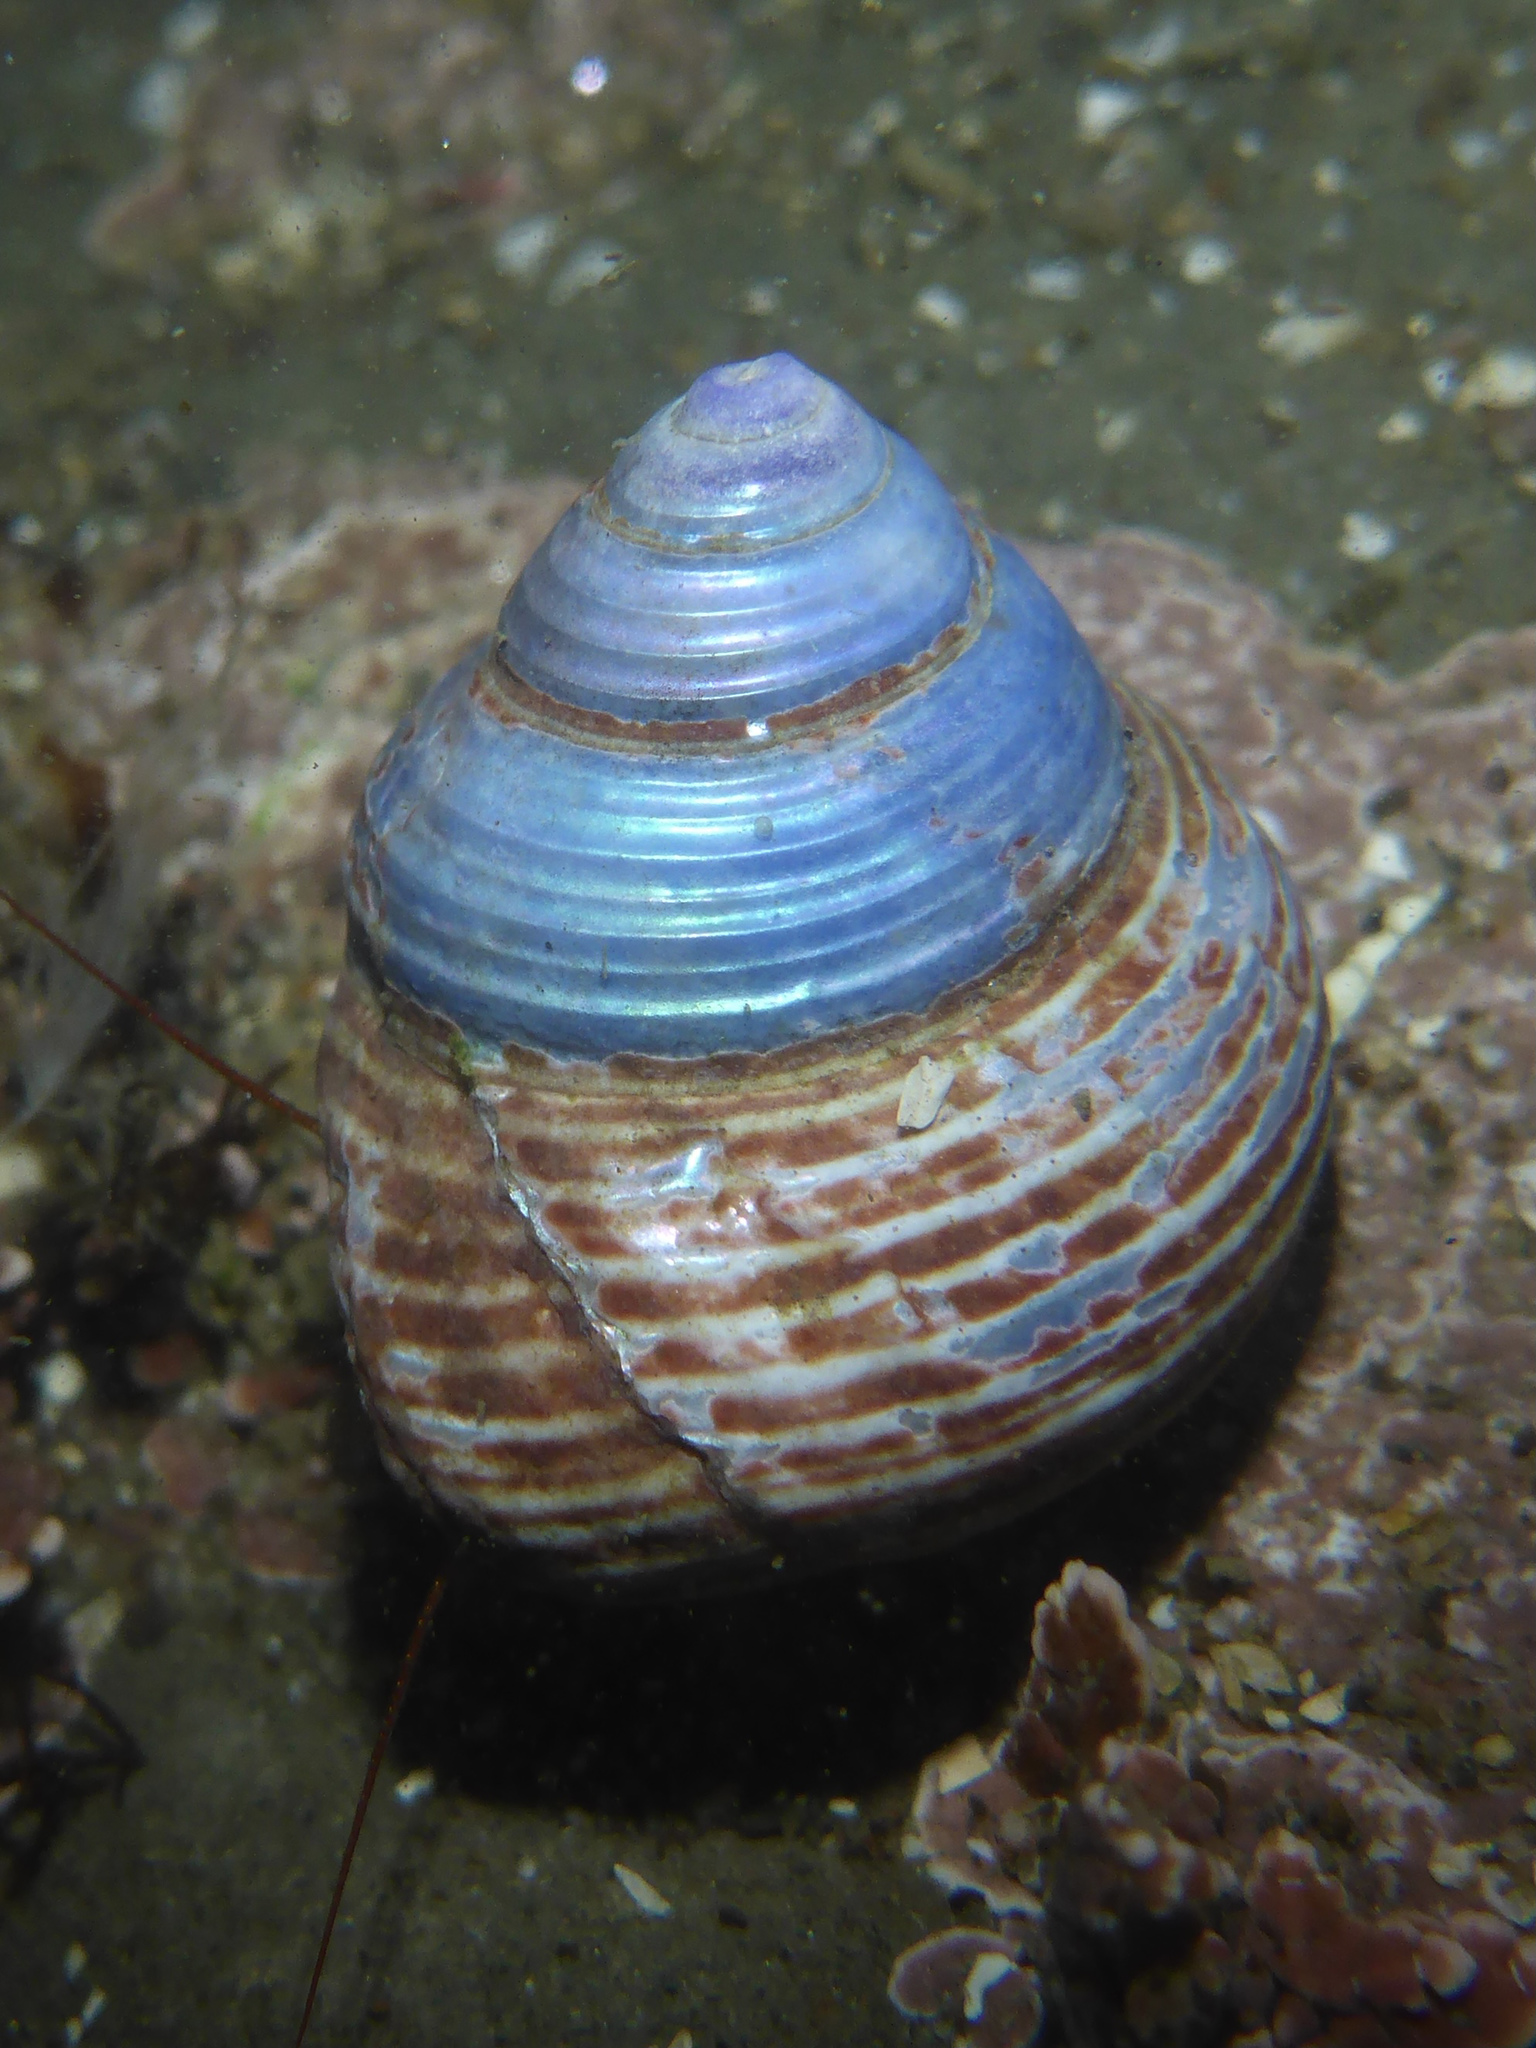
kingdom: Animalia
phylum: Mollusca
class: Gastropoda
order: Trochida
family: Calliostomatidae
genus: Calliostoma
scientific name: Calliostoma ligatum
